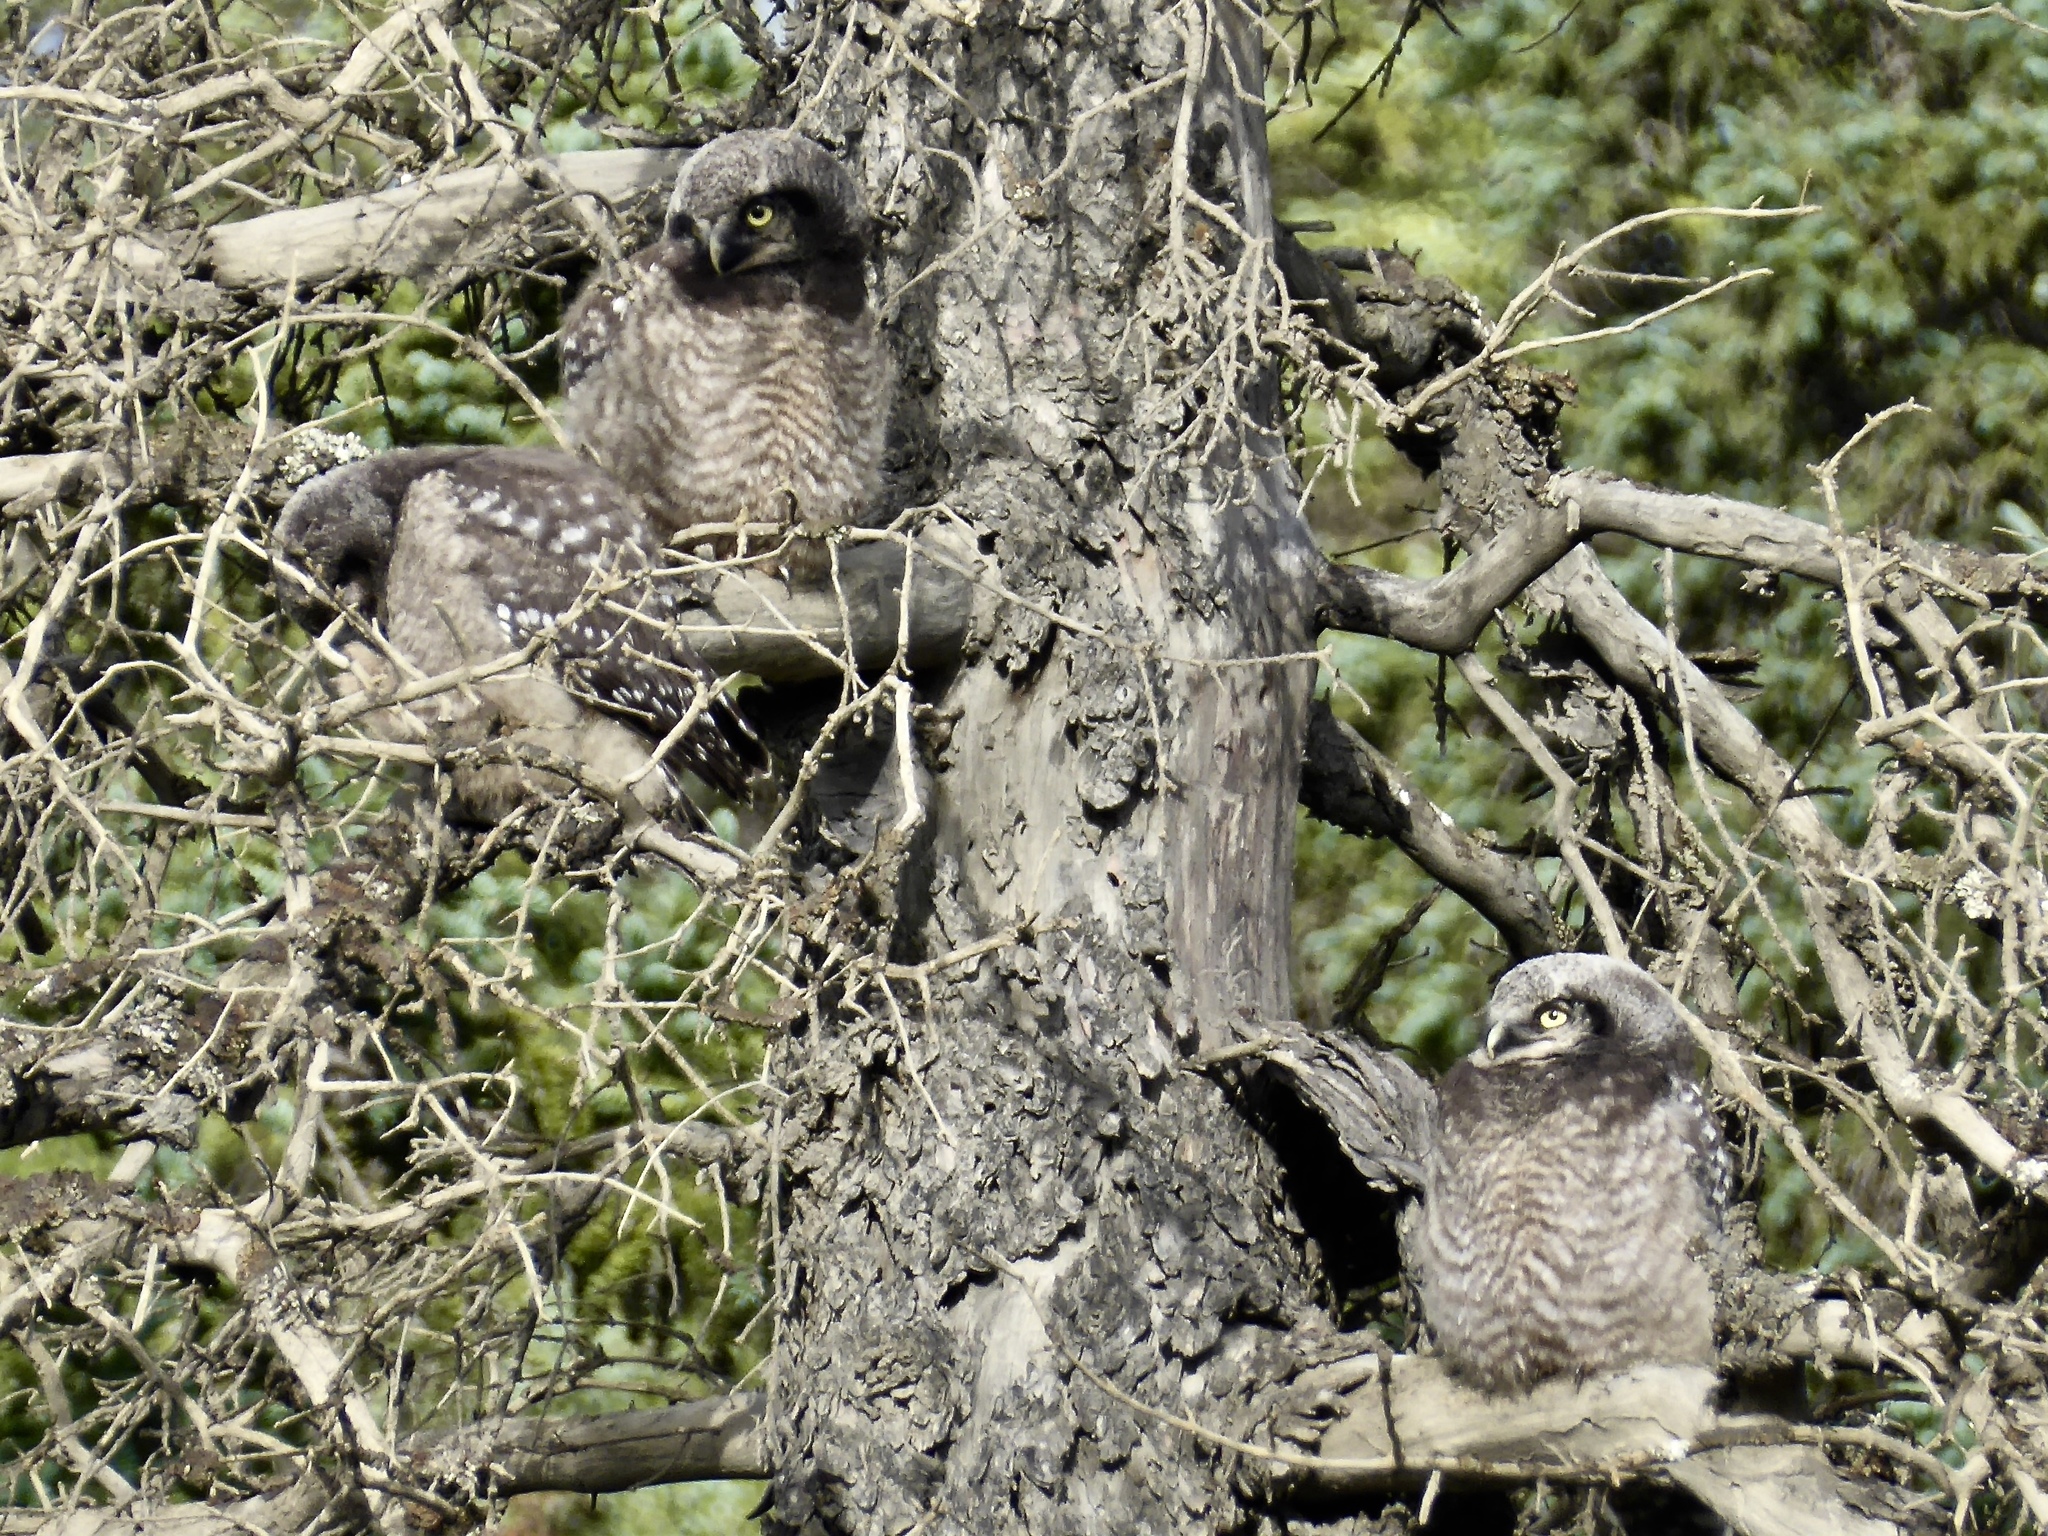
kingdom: Animalia
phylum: Chordata
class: Aves
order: Strigiformes
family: Strigidae
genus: Surnia
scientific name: Surnia ulula
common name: Northern hawk-owl
